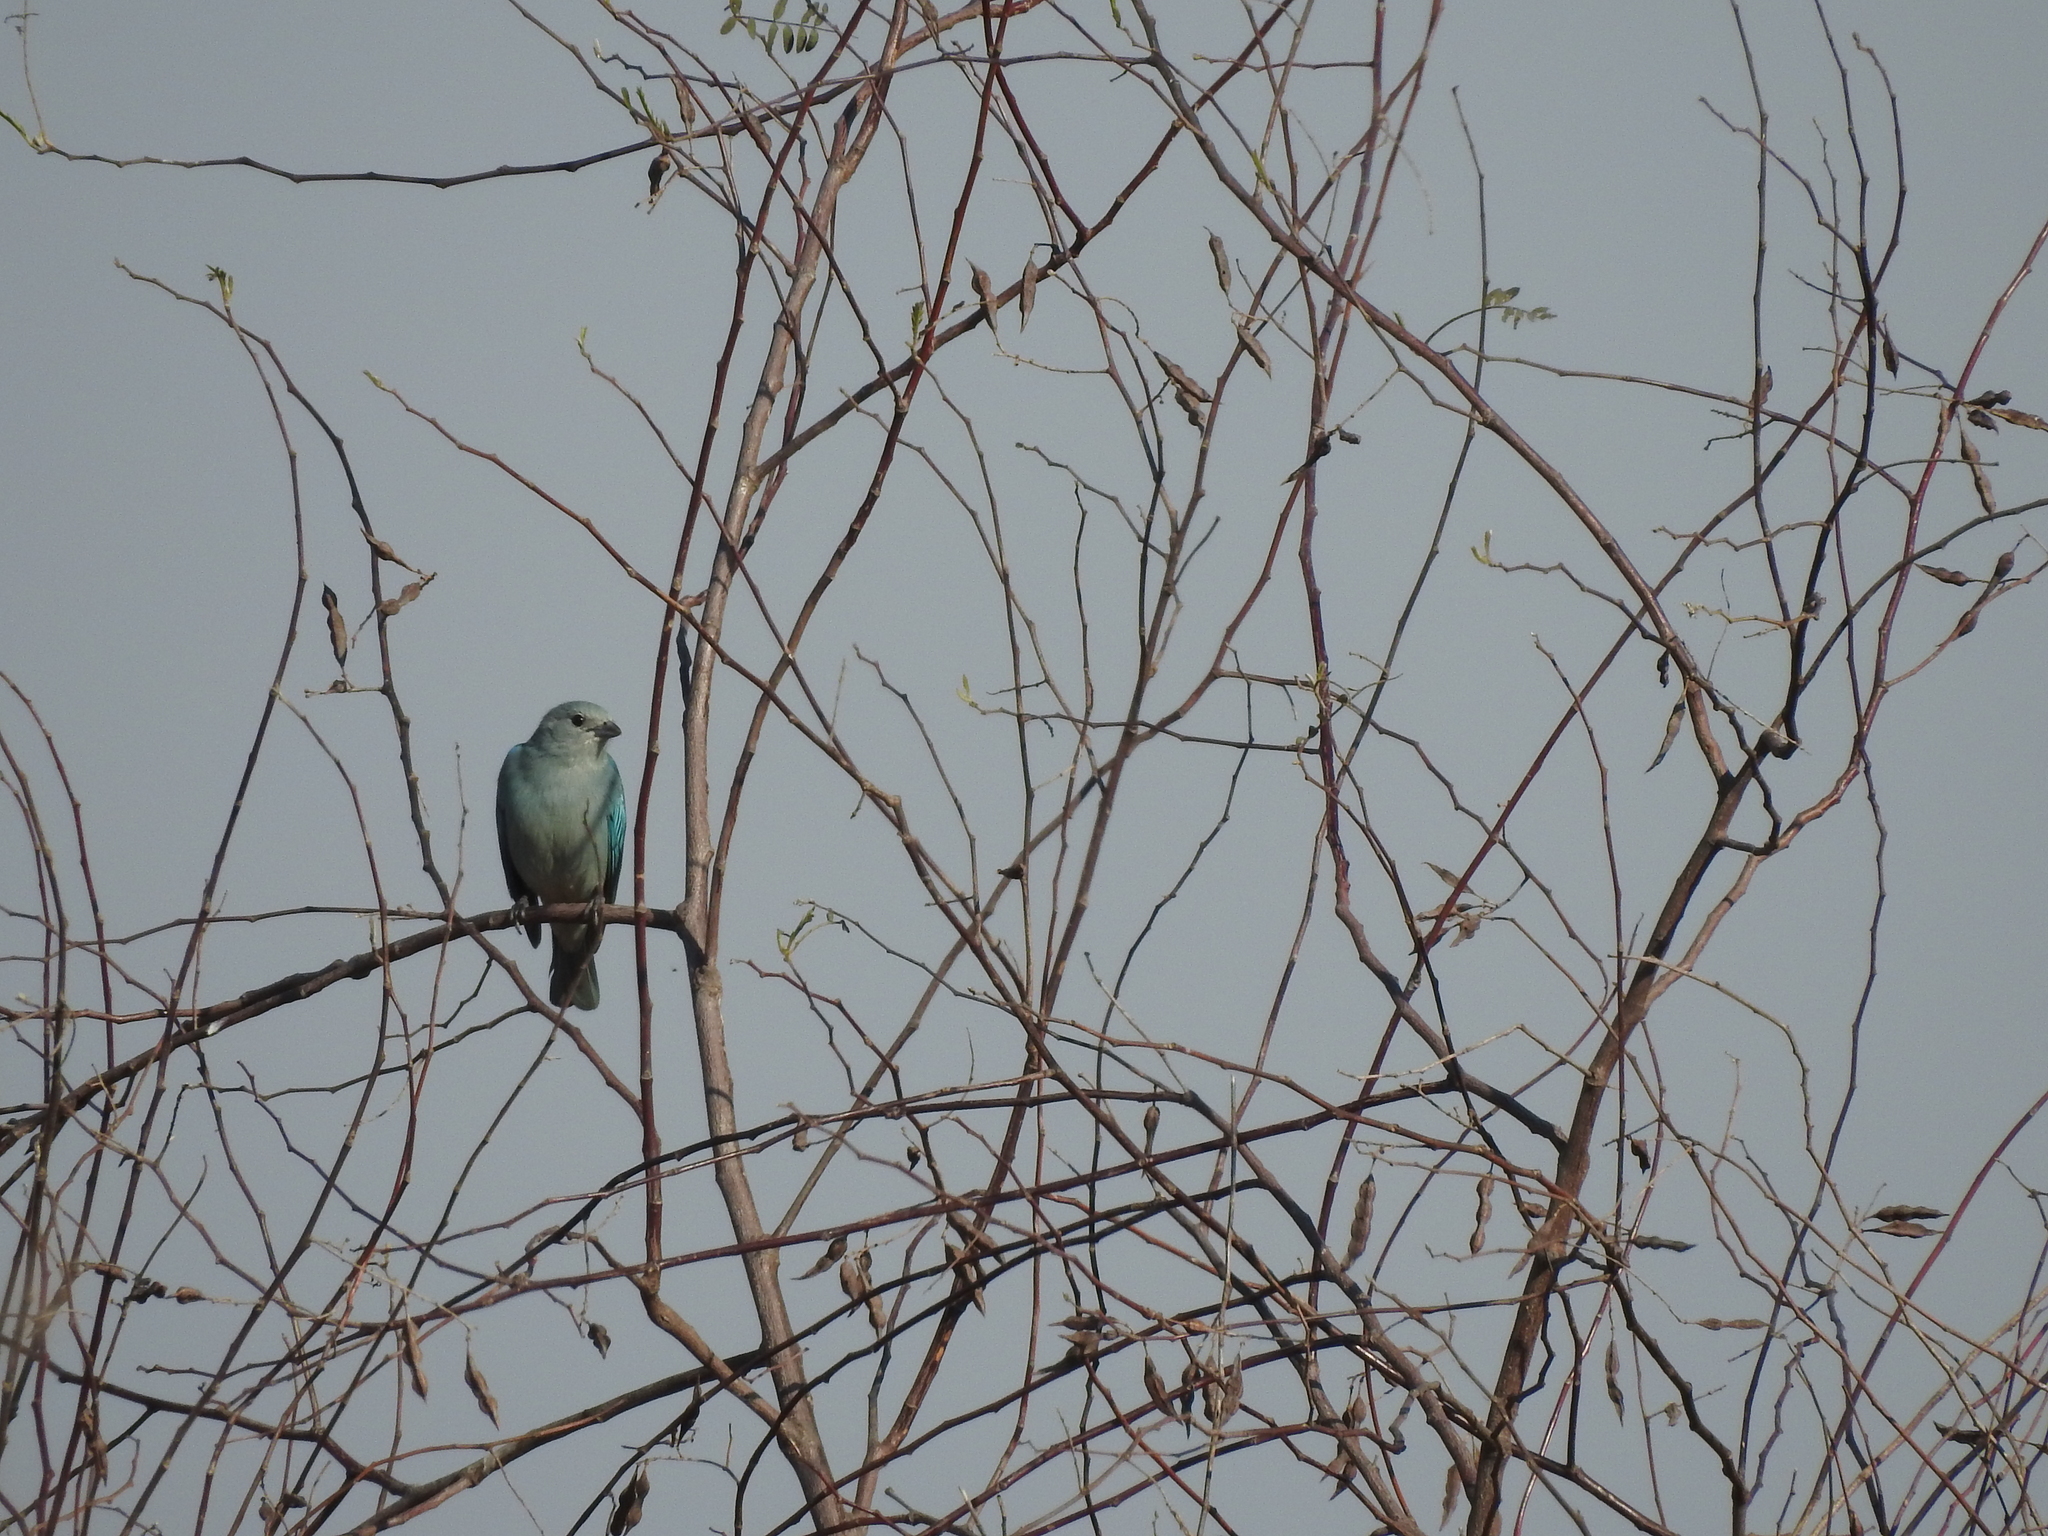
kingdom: Animalia
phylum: Chordata
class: Aves
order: Passeriformes
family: Thraupidae
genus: Thraupis
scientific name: Thraupis sayaca
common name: Sayaca tanager
